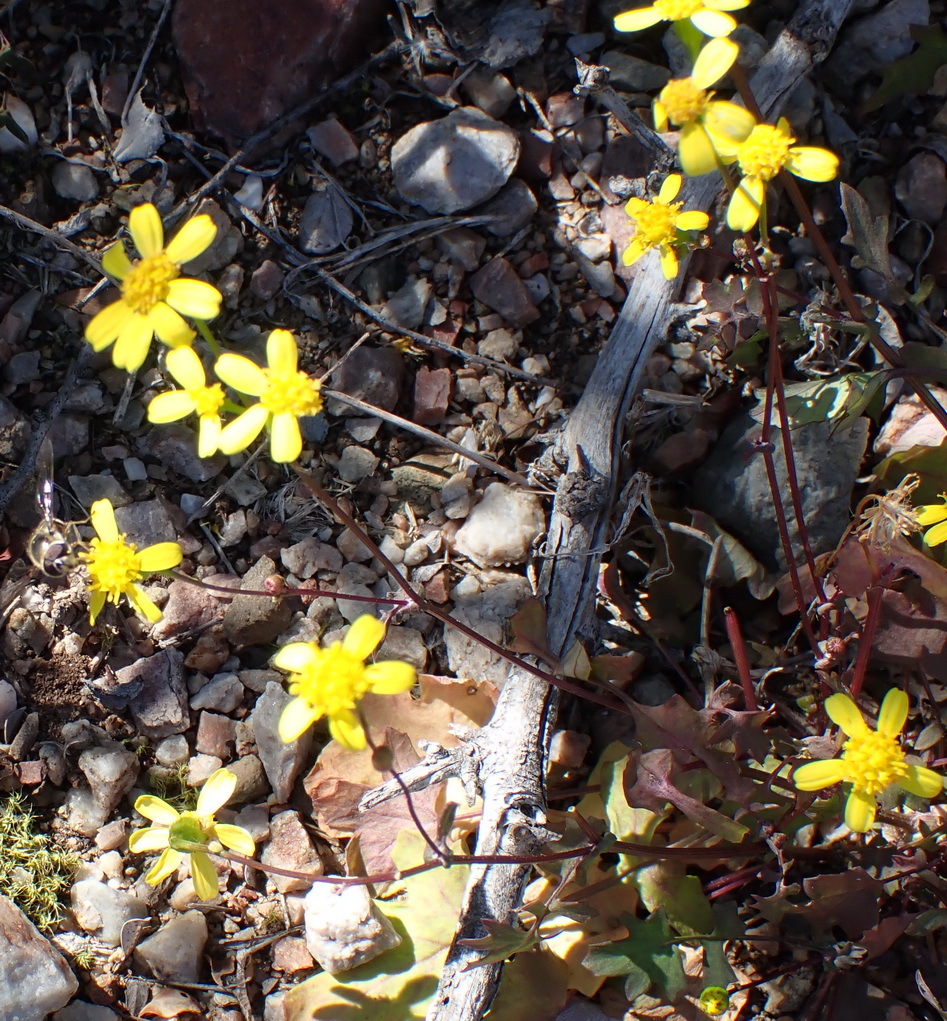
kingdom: Plantae
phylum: Tracheophyta
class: Magnoliopsida
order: Asterales
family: Asteraceae
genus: Cineraria
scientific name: Cineraria platycarpa
